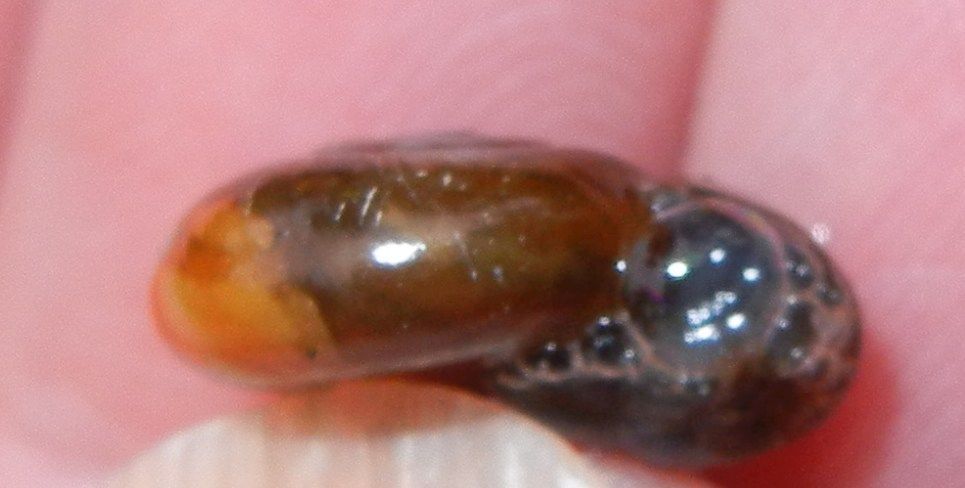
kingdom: Animalia
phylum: Mollusca
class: Gastropoda
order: Stylommatophora
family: Oxychilidae
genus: Oxychilus
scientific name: Oxychilus draparnaudi
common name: Draparnaud's glass snail
